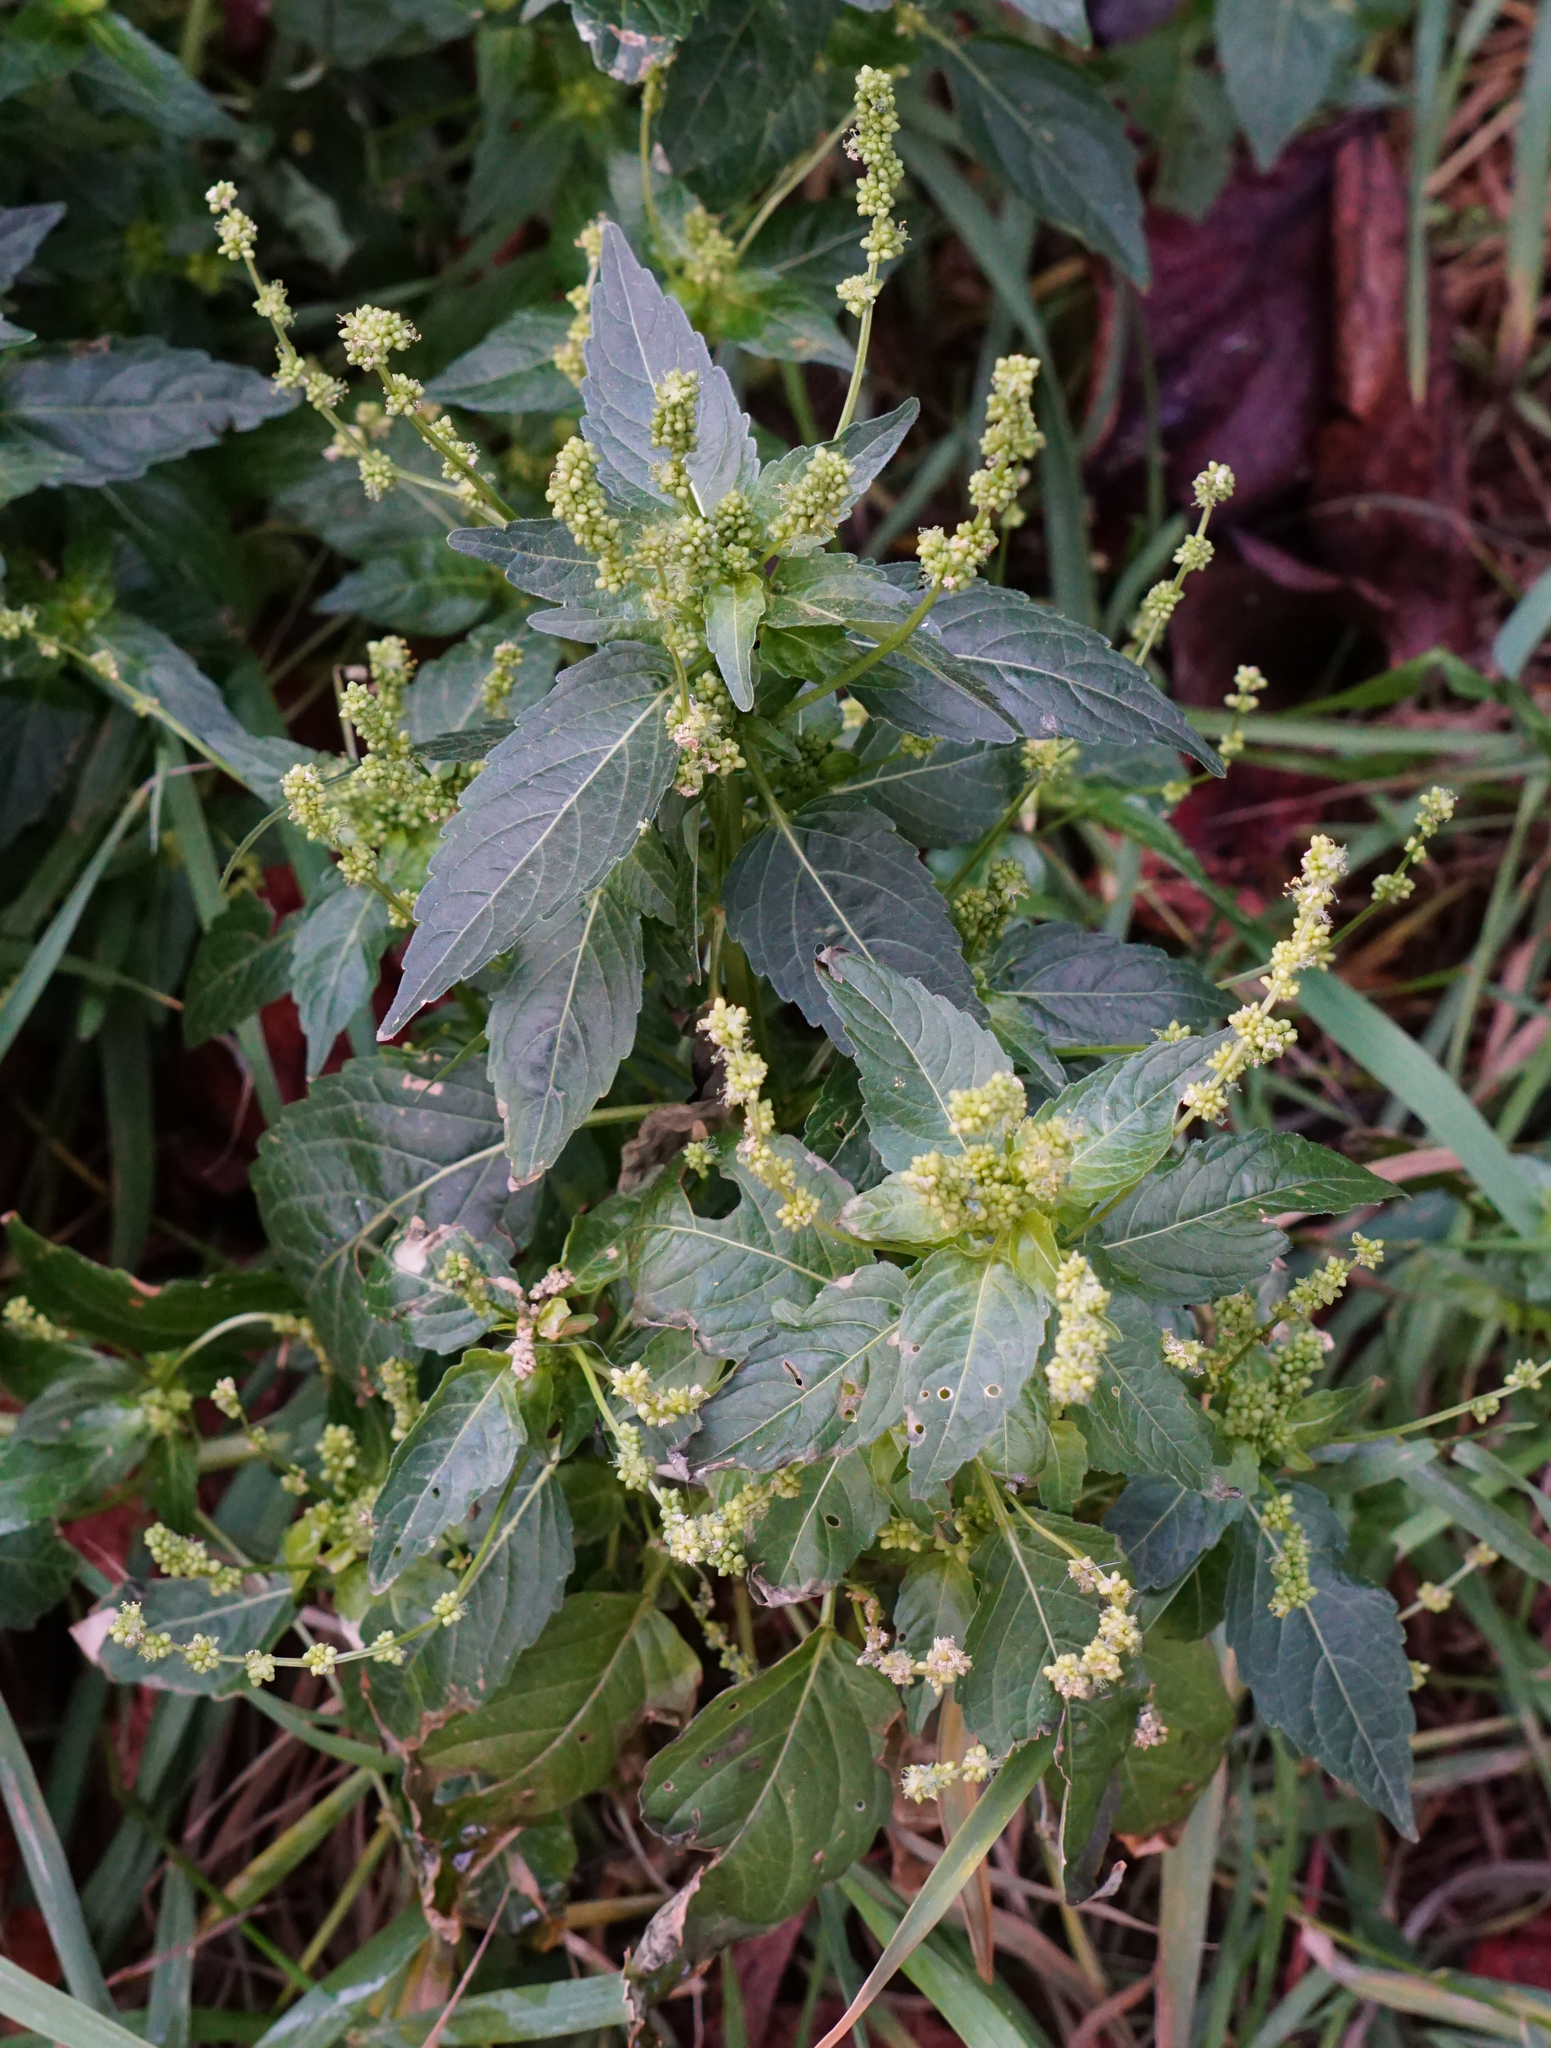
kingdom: Plantae
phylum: Tracheophyta
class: Magnoliopsida
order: Malpighiales
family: Euphorbiaceae
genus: Mercurialis
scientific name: Mercurialis annua
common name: Annual mercury
